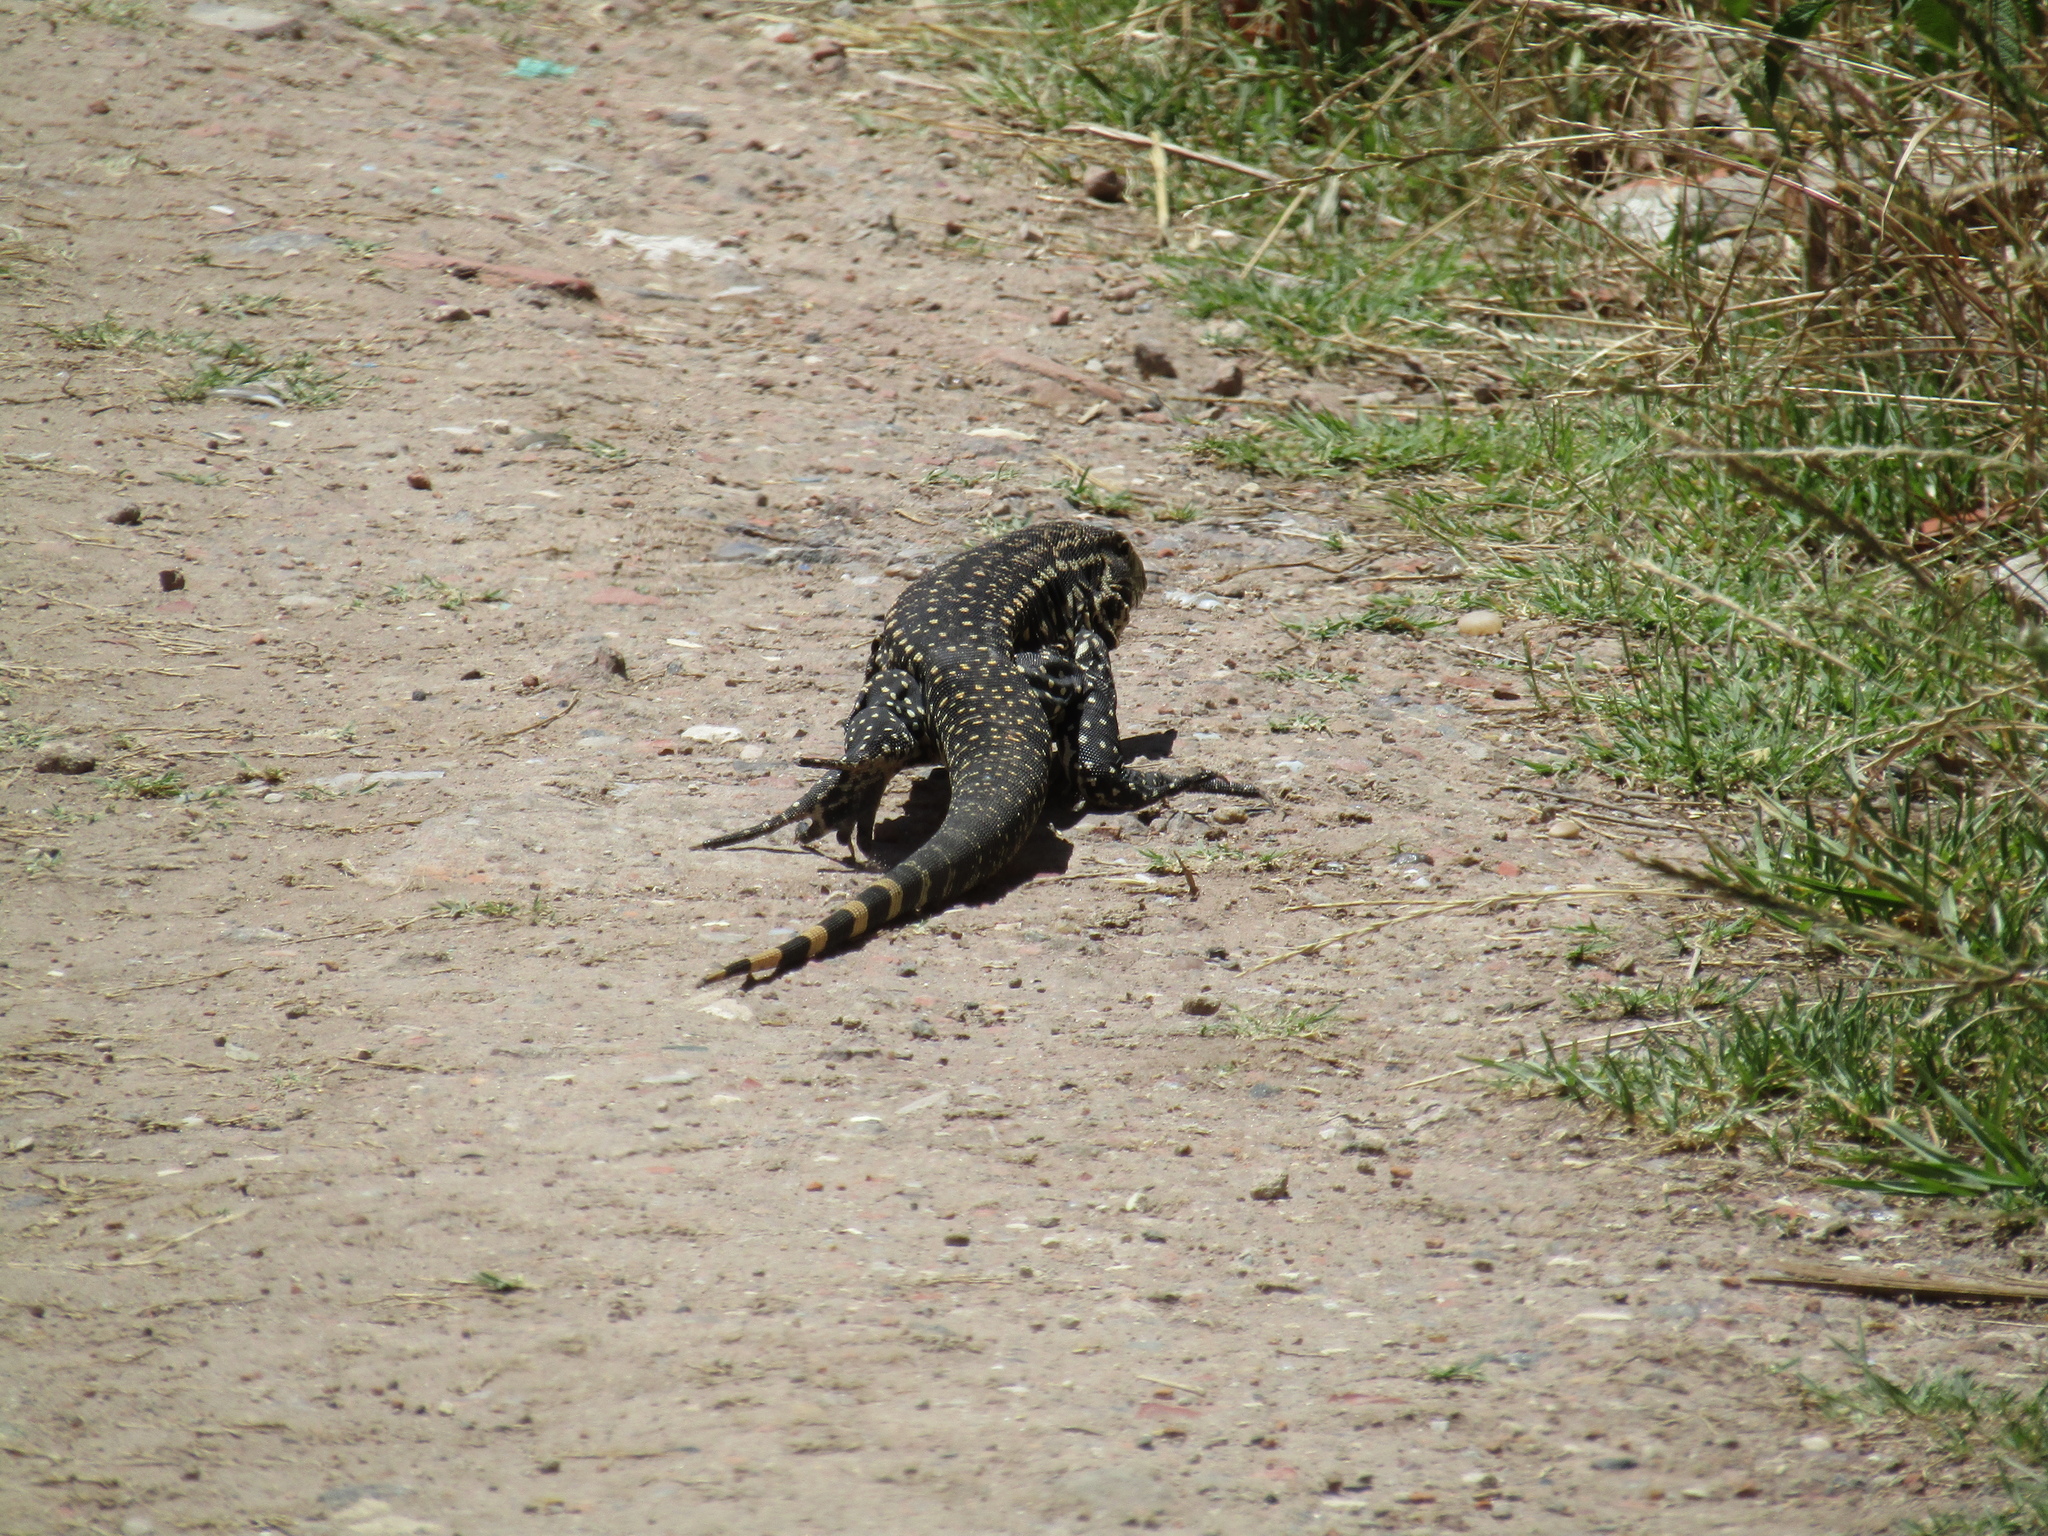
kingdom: Animalia
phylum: Chordata
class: Squamata
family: Teiidae
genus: Salvator
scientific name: Salvator merianae
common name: Argentine black and white tegu
